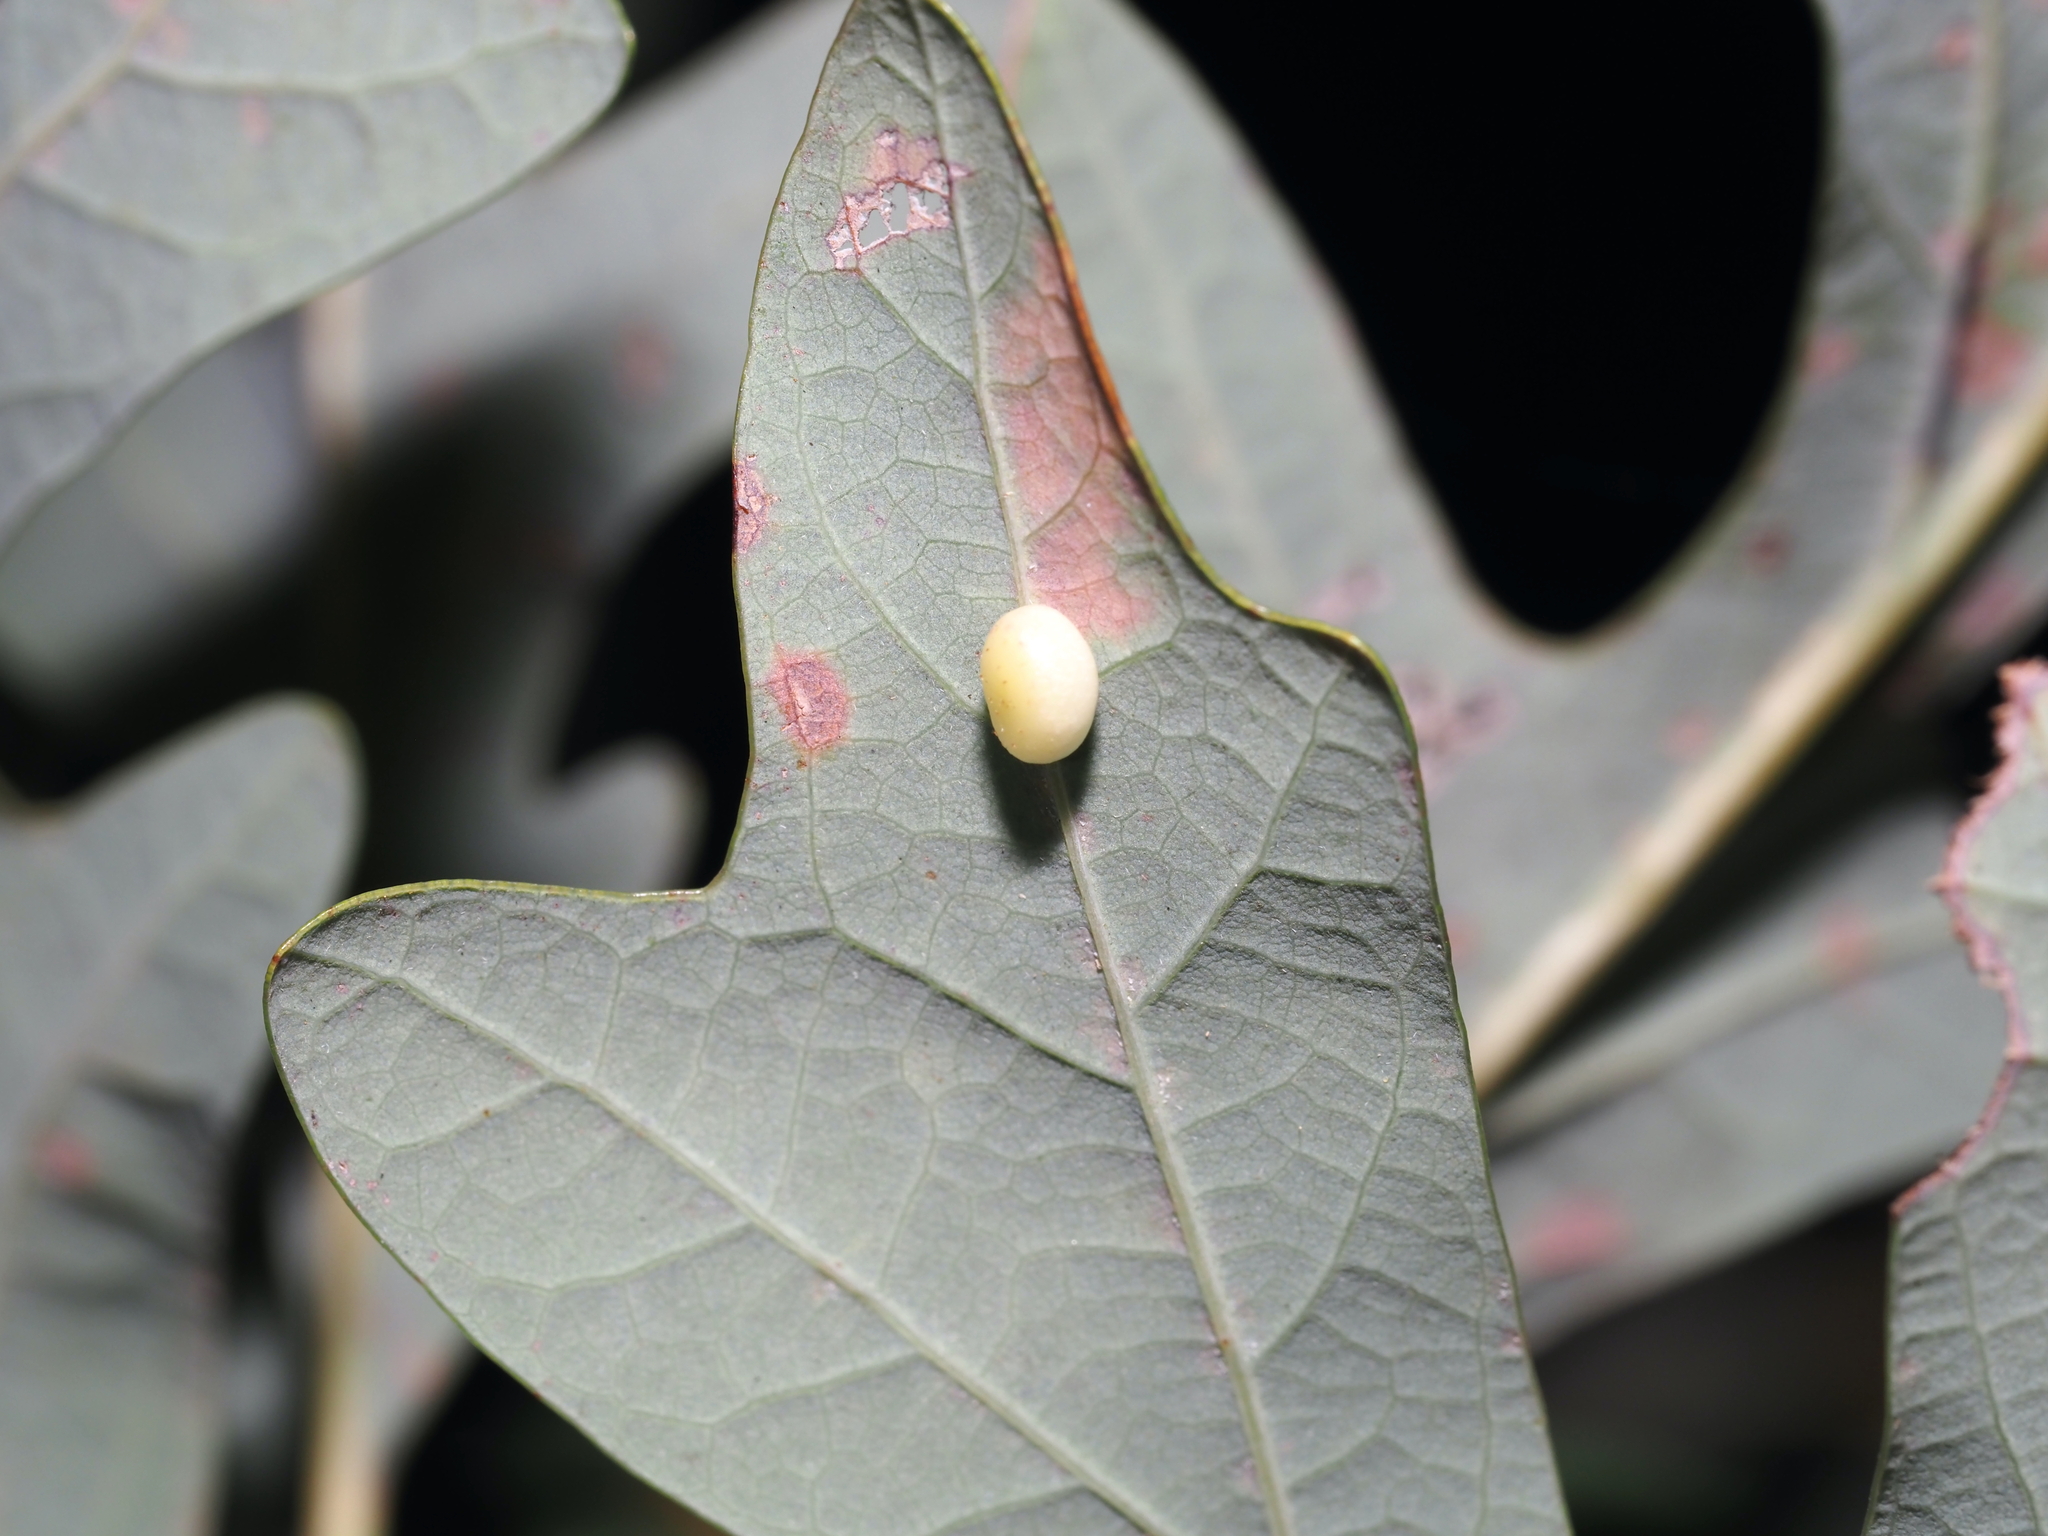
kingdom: Animalia
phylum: Arthropoda
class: Insecta
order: Hymenoptera
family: Cynipidae
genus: Phylloteras
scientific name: Phylloteras
